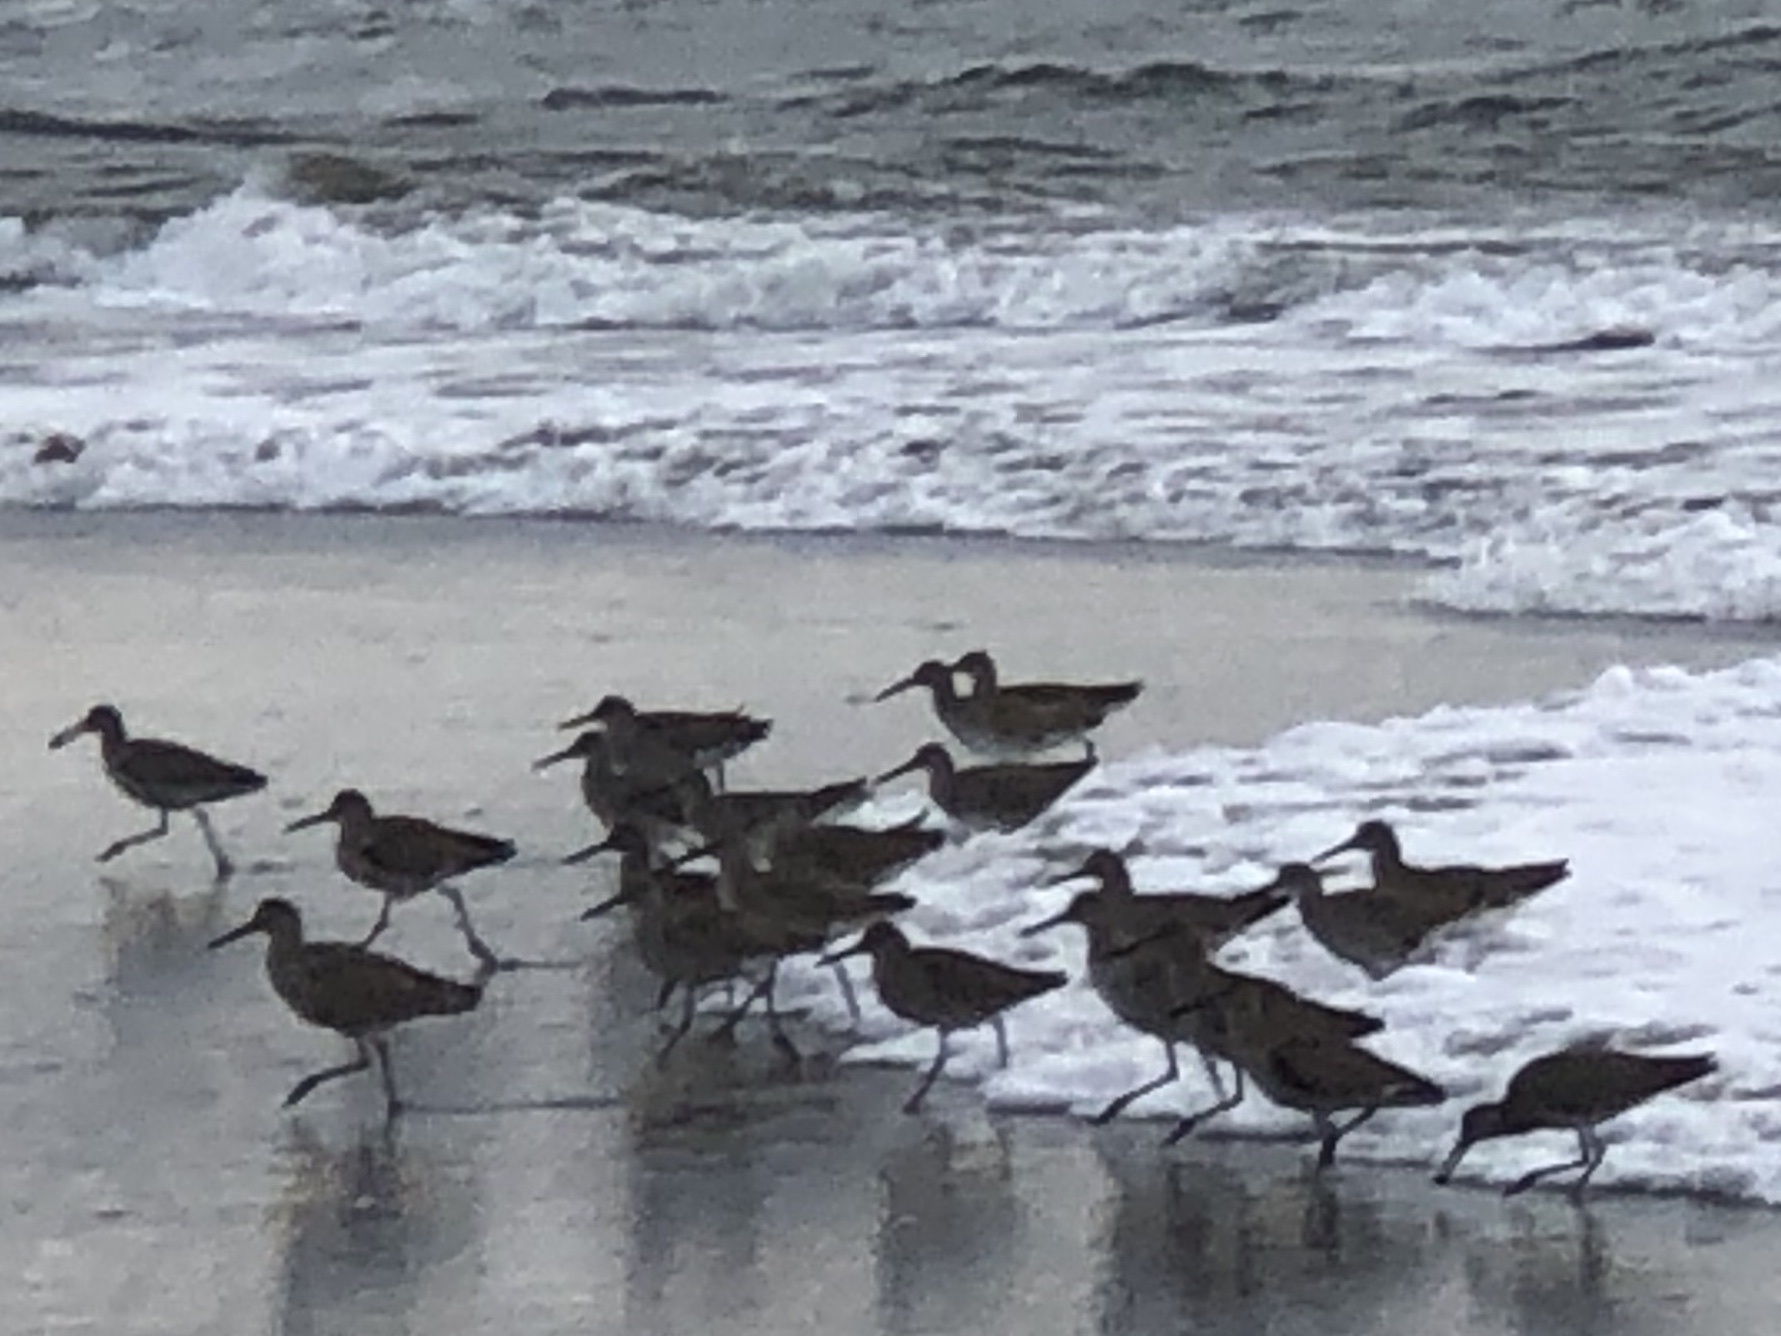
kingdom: Animalia
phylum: Chordata
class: Aves
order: Charadriiformes
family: Scolopacidae
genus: Tringa
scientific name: Tringa semipalmata
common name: Willet
